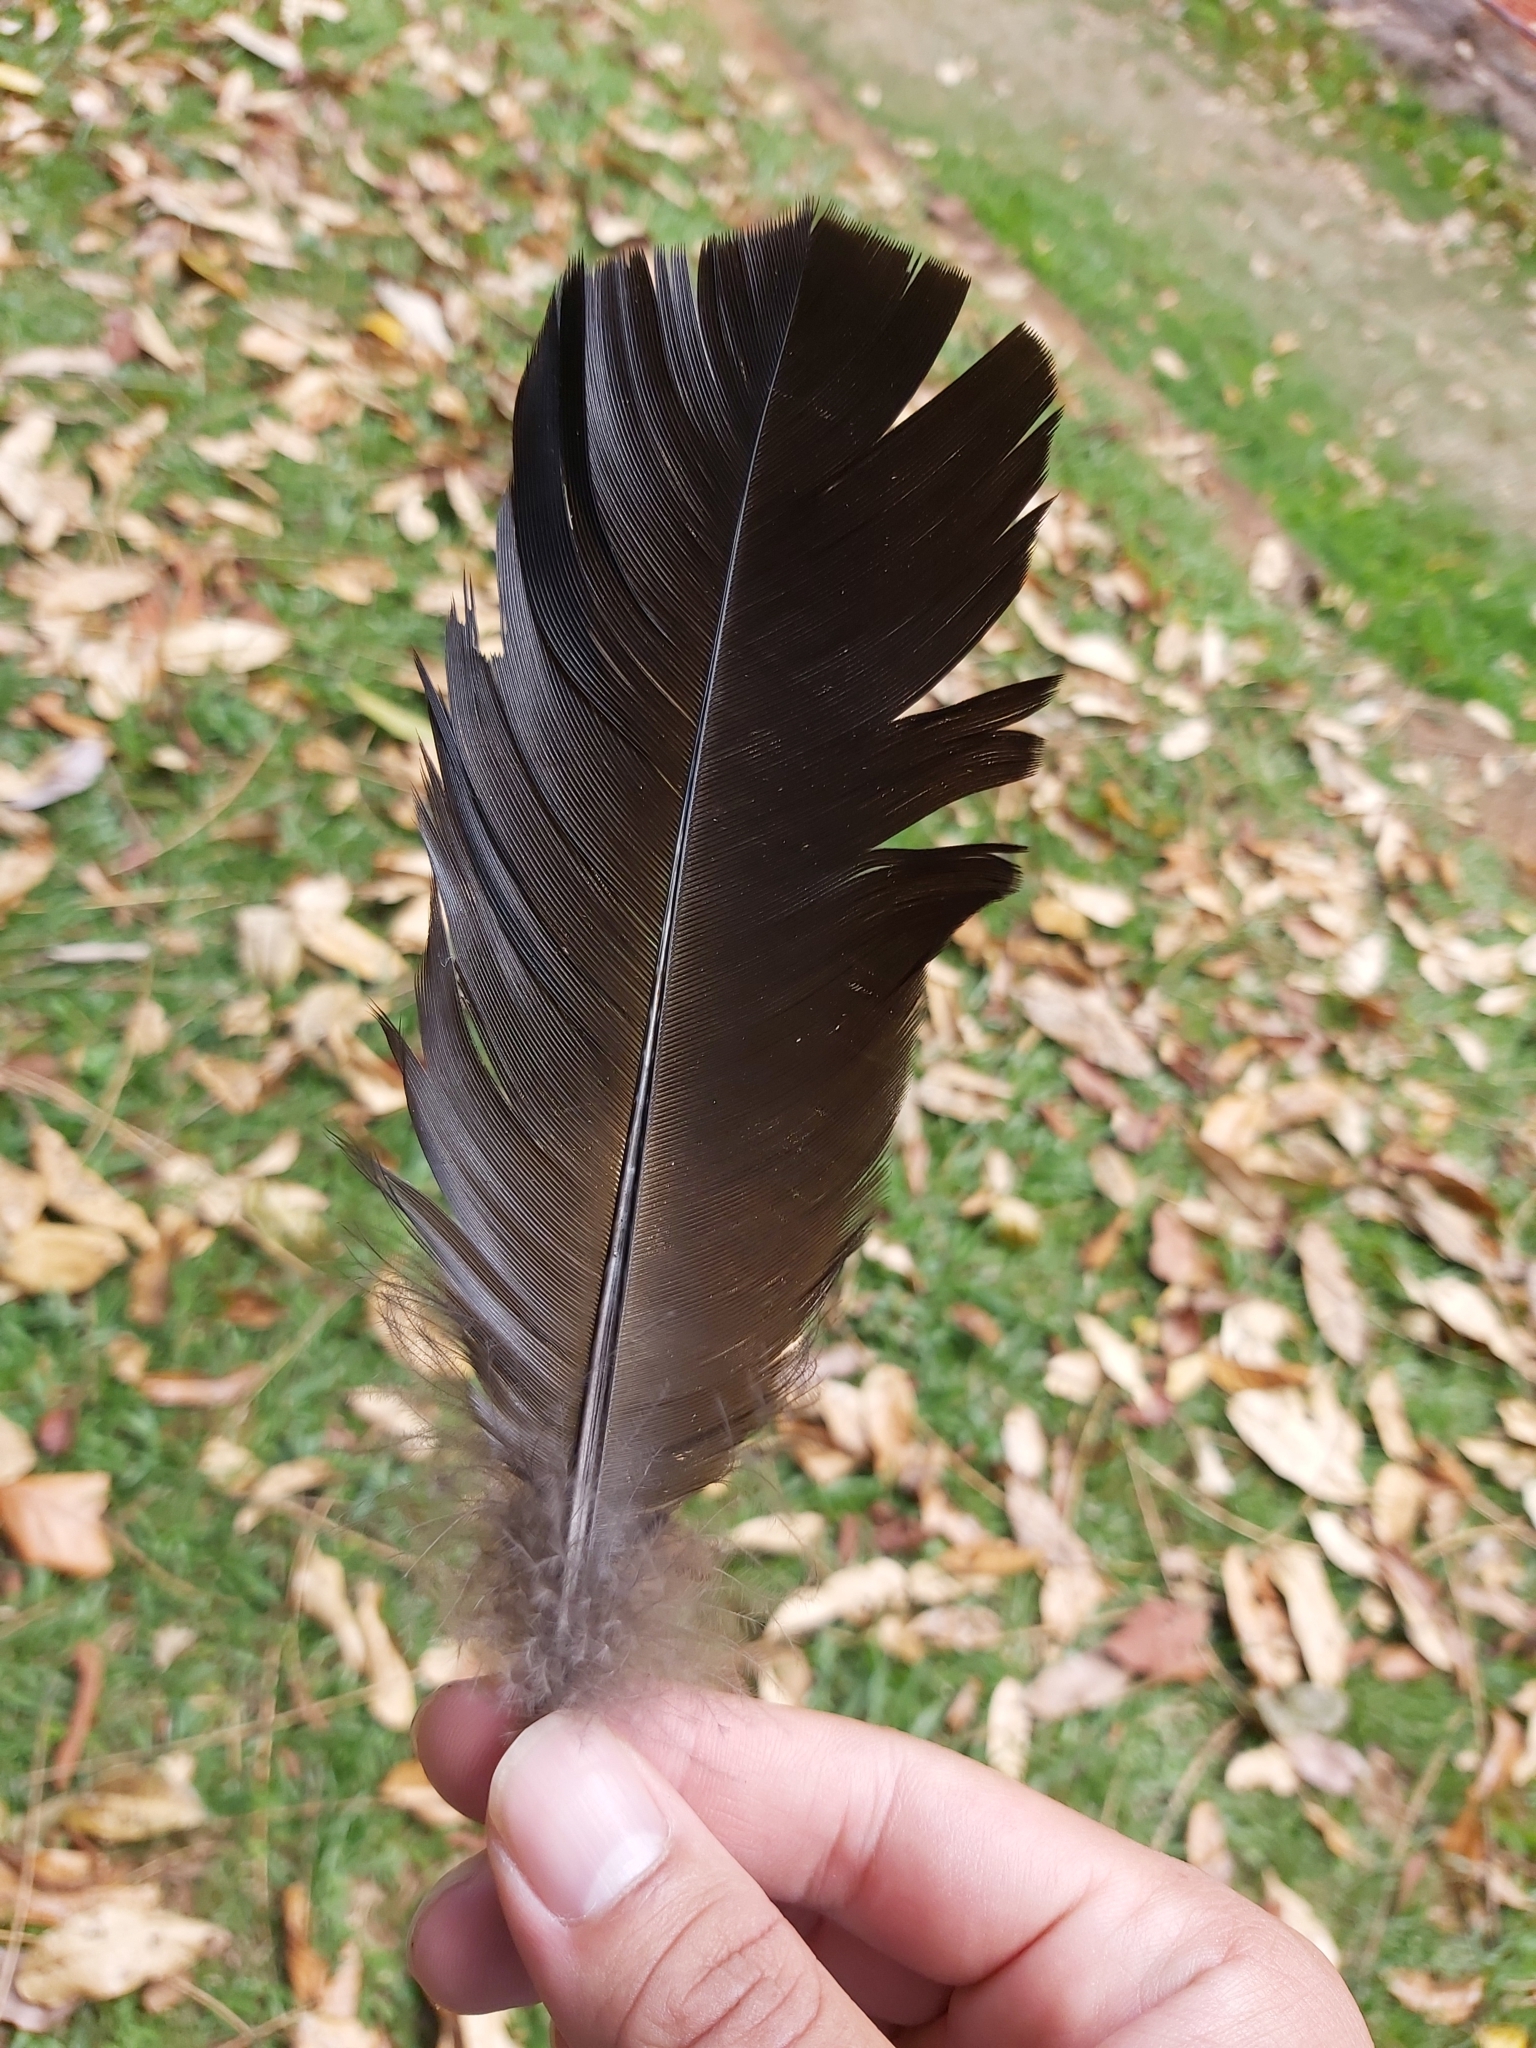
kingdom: Animalia
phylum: Chordata
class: Aves
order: Galliformes
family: Megapodiidae
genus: Alectura
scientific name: Alectura lathami
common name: Australian brushturkey
